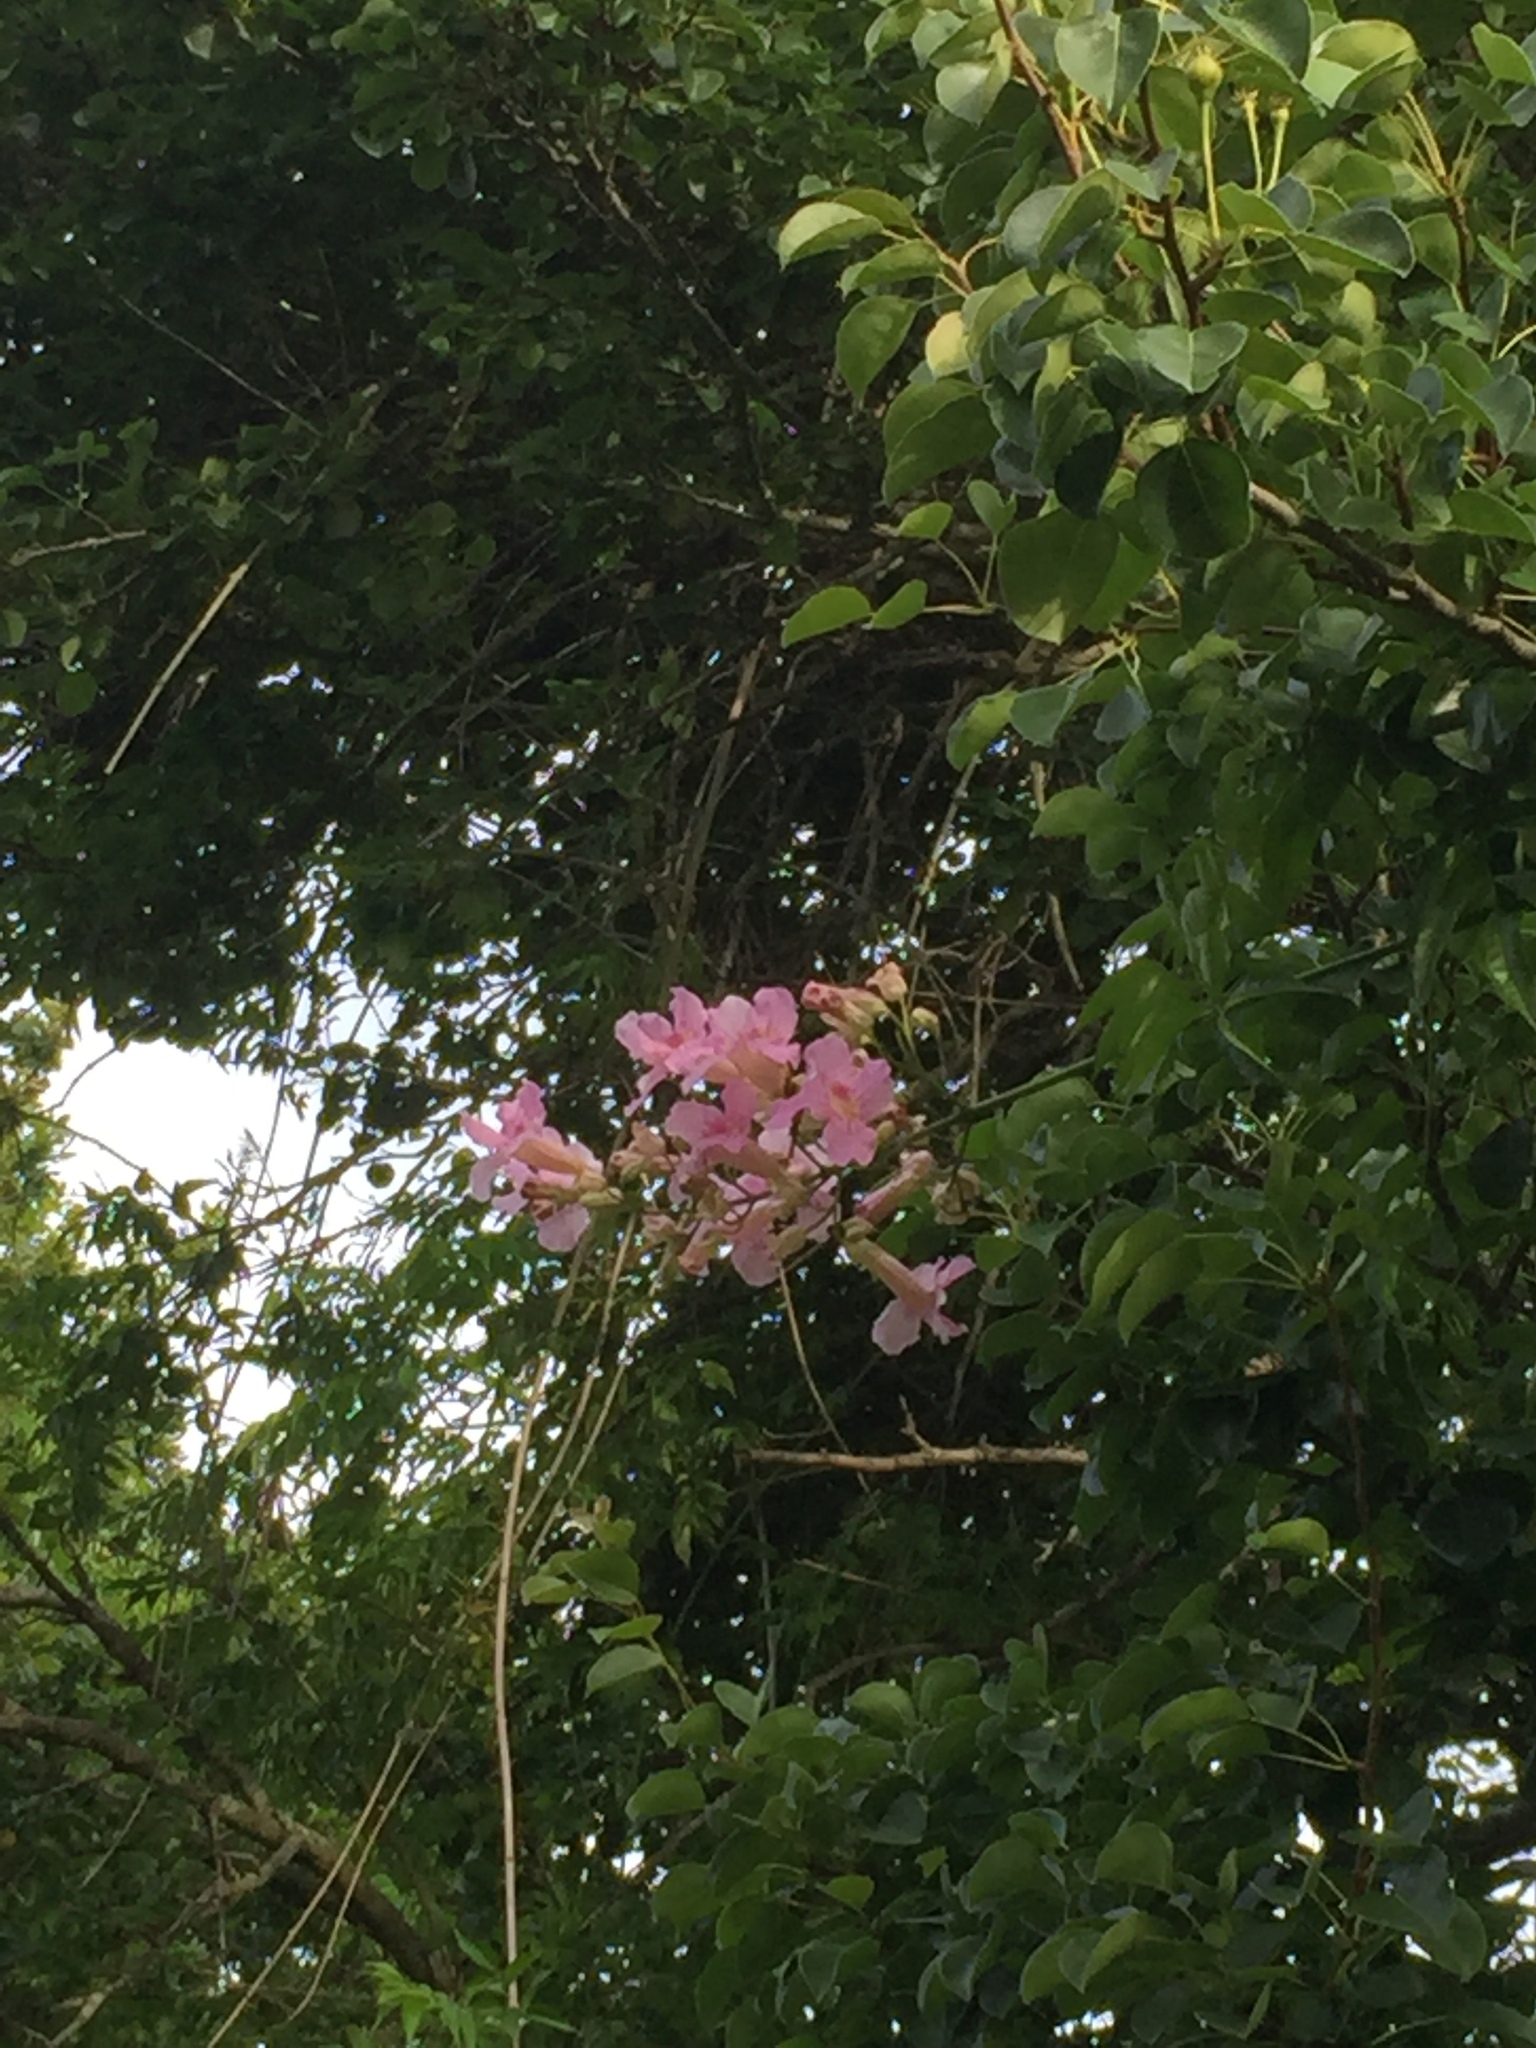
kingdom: Plantae
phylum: Tracheophyta
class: Magnoliopsida
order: Lamiales
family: Bignoniaceae
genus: Podranea
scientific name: Podranea ricasoliana
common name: Zimbabwe creeper
